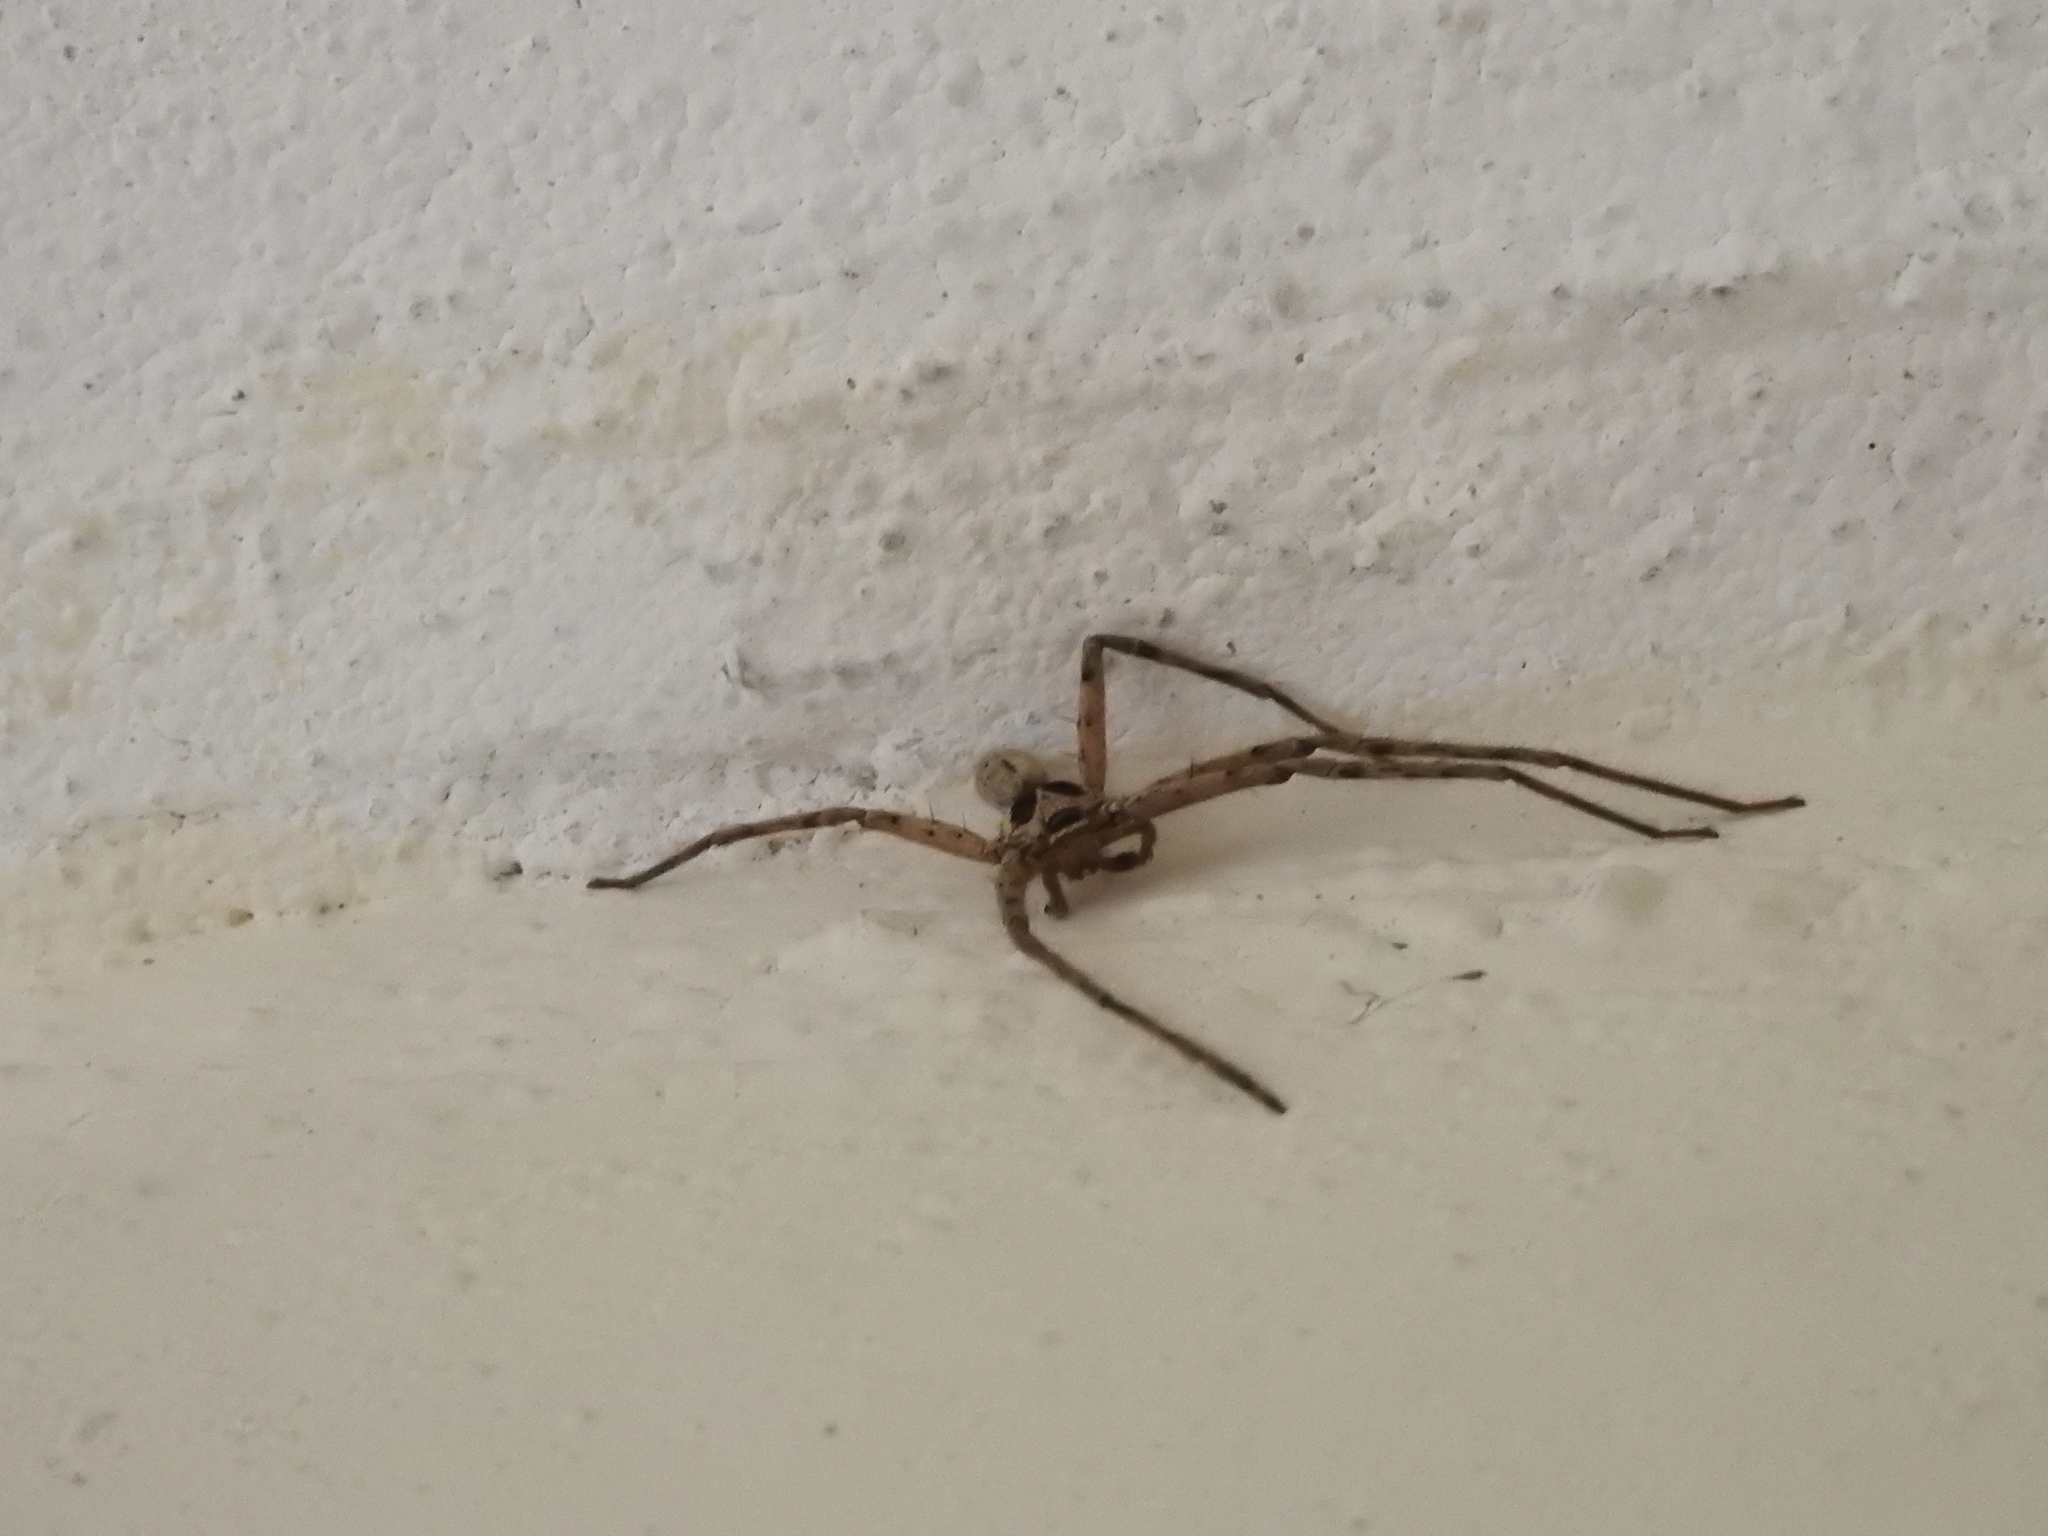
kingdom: Animalia
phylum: Arthropoda
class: Arachnida
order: Araneae
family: Sparassidae
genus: Heteropoda
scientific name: Heteropoda venatoria
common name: Huntsman spider
